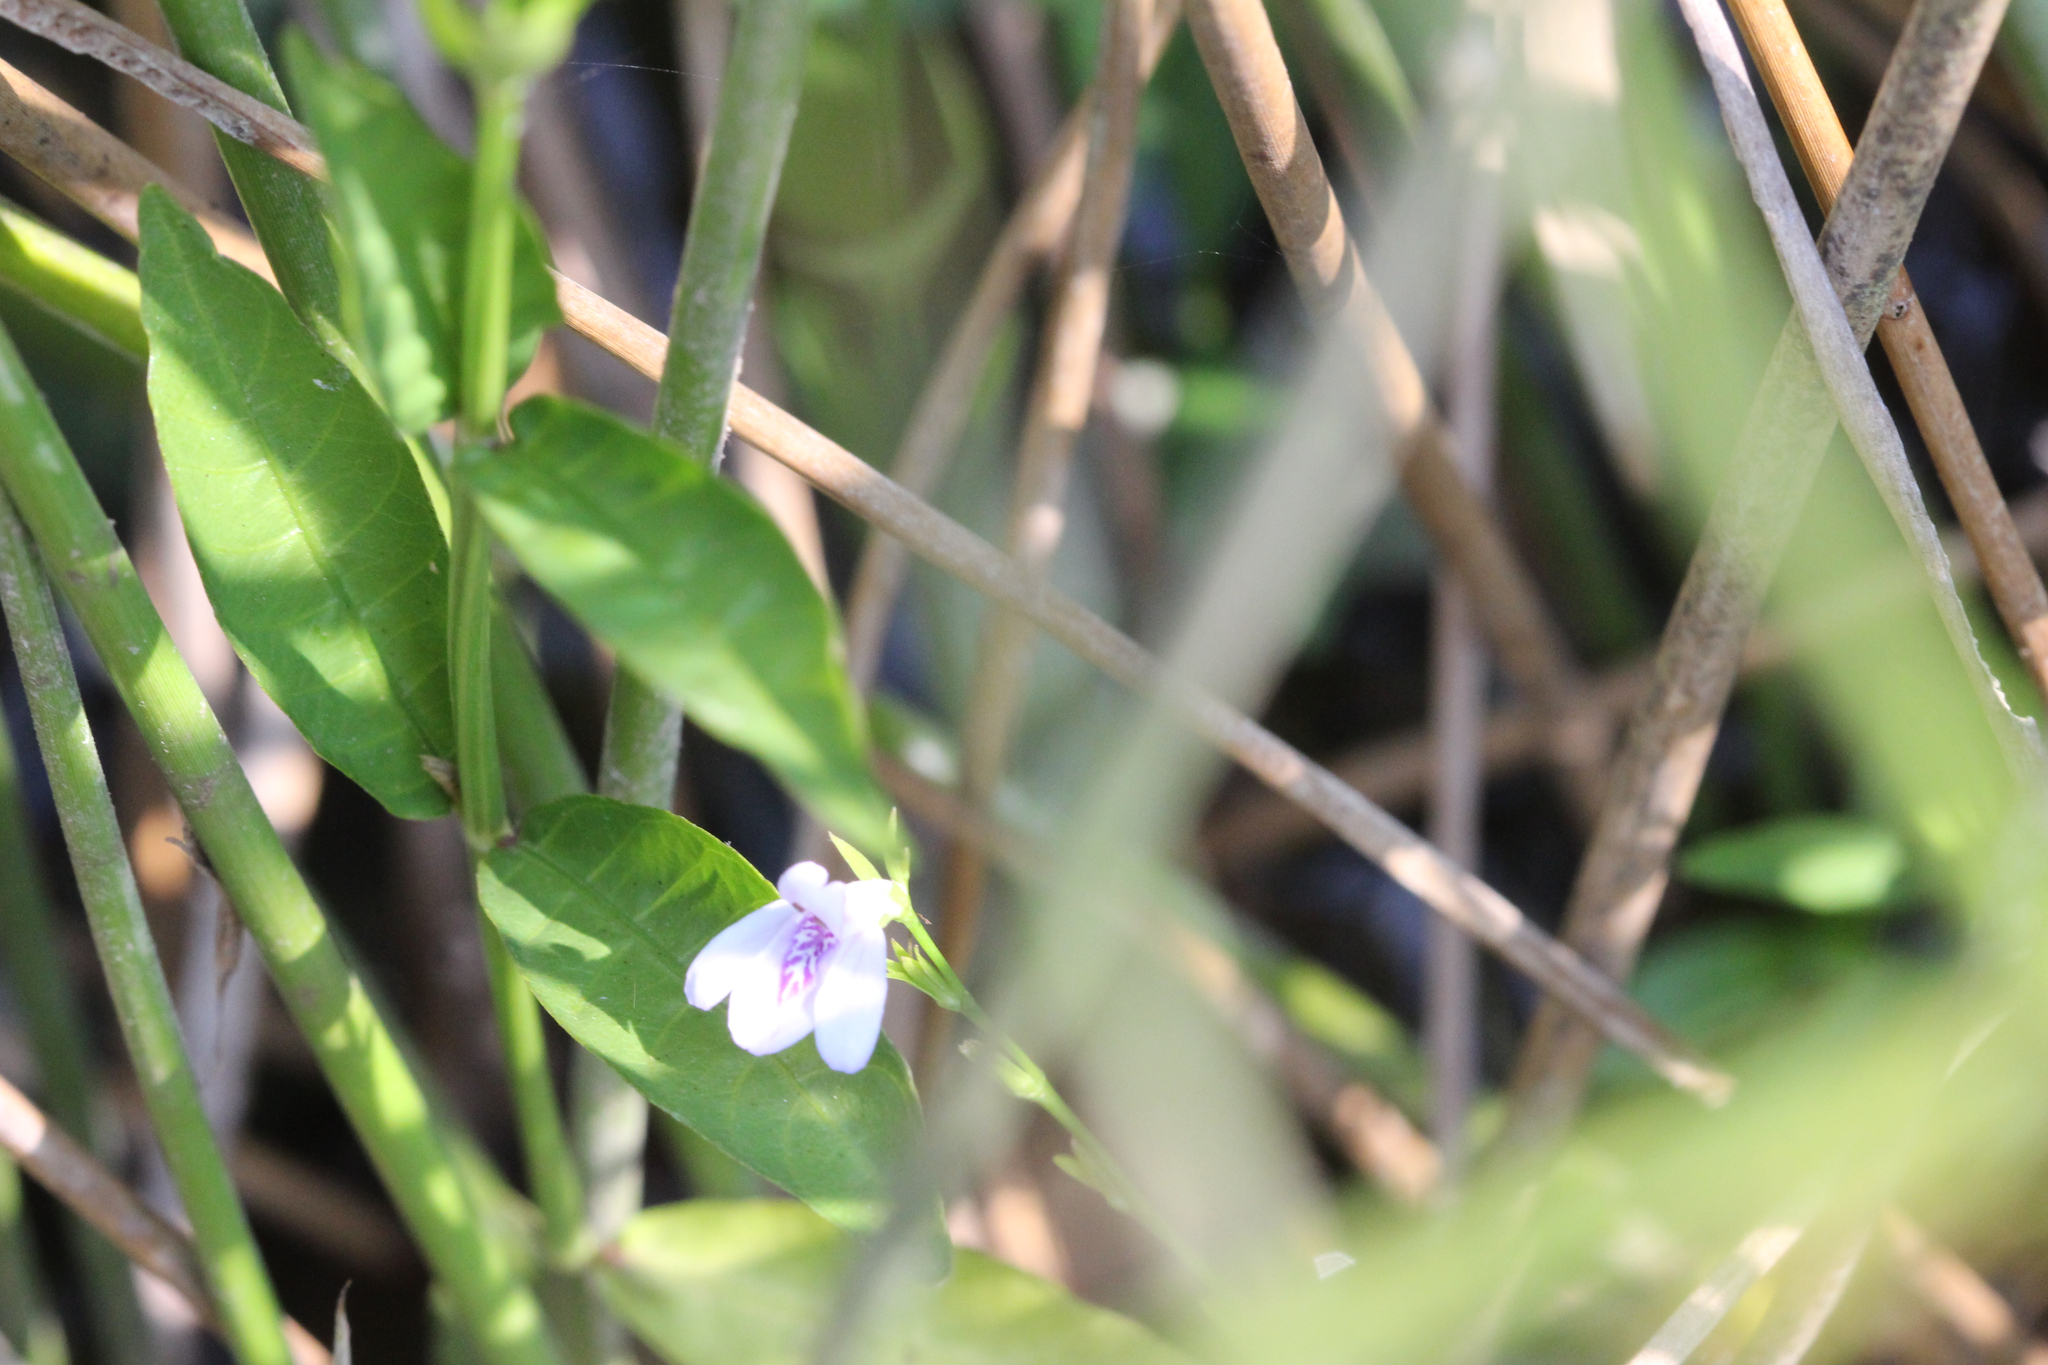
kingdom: Plantae
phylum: Tracheophyta
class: Magnoliopsida
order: Lamiales
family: Acanthaceae
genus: Justicia
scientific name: Justicia lanceolata
